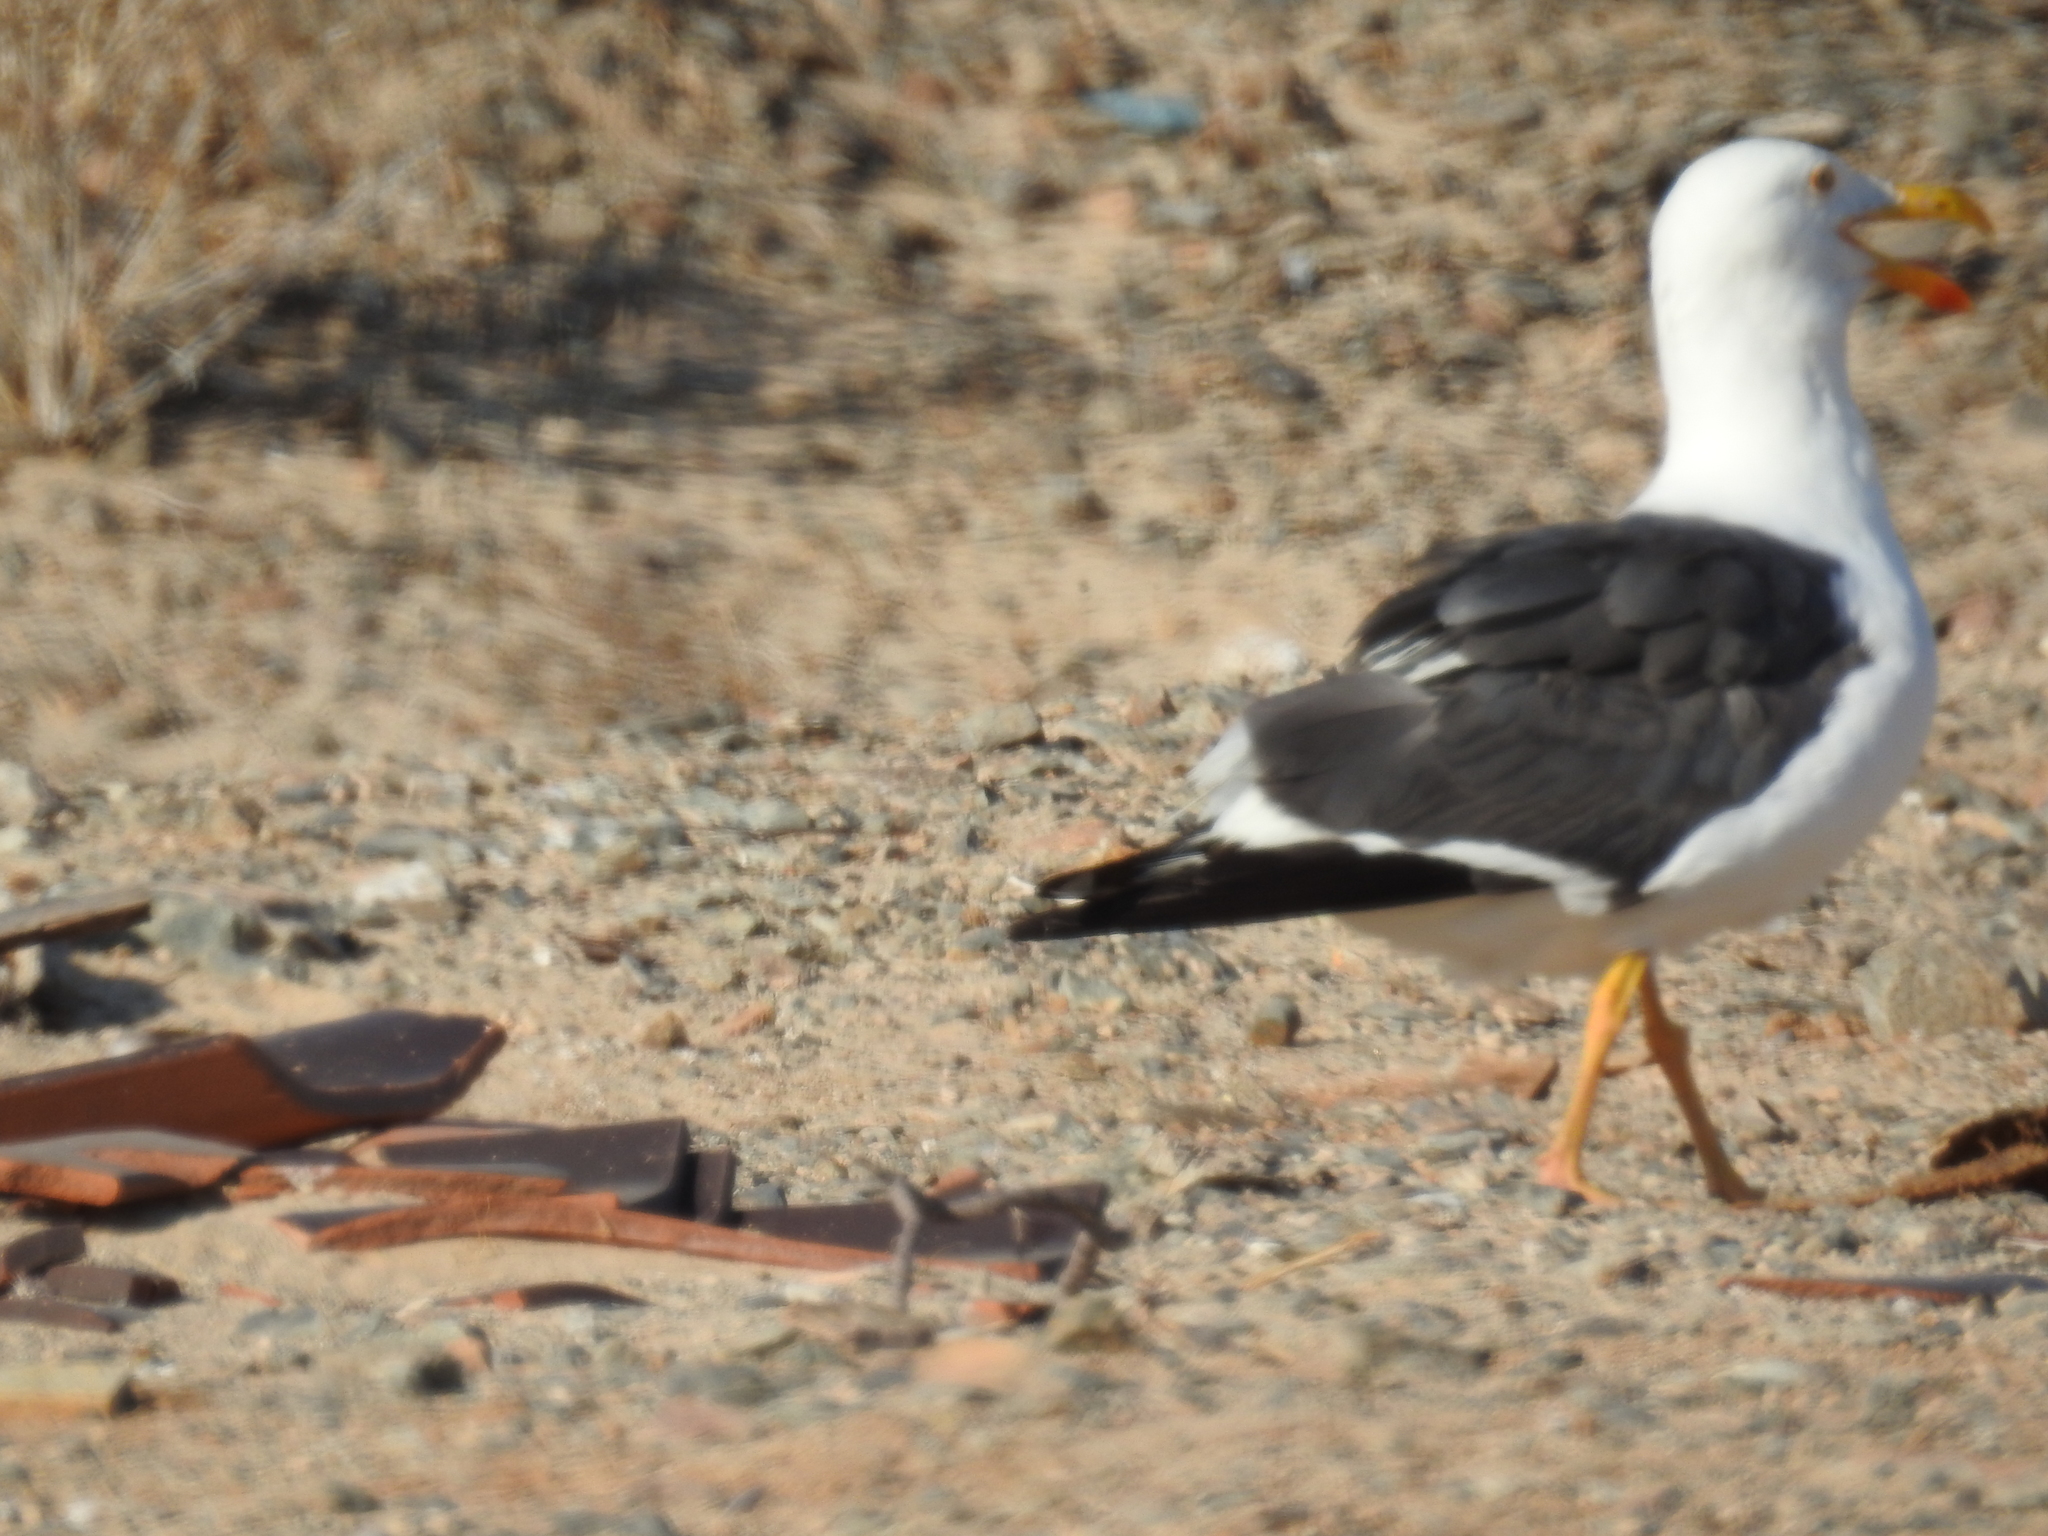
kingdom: Animalia
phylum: Chordata
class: Aves
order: Charadriiformes
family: Laridae
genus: Larus
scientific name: Larus livens
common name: Yellow-footed gull
